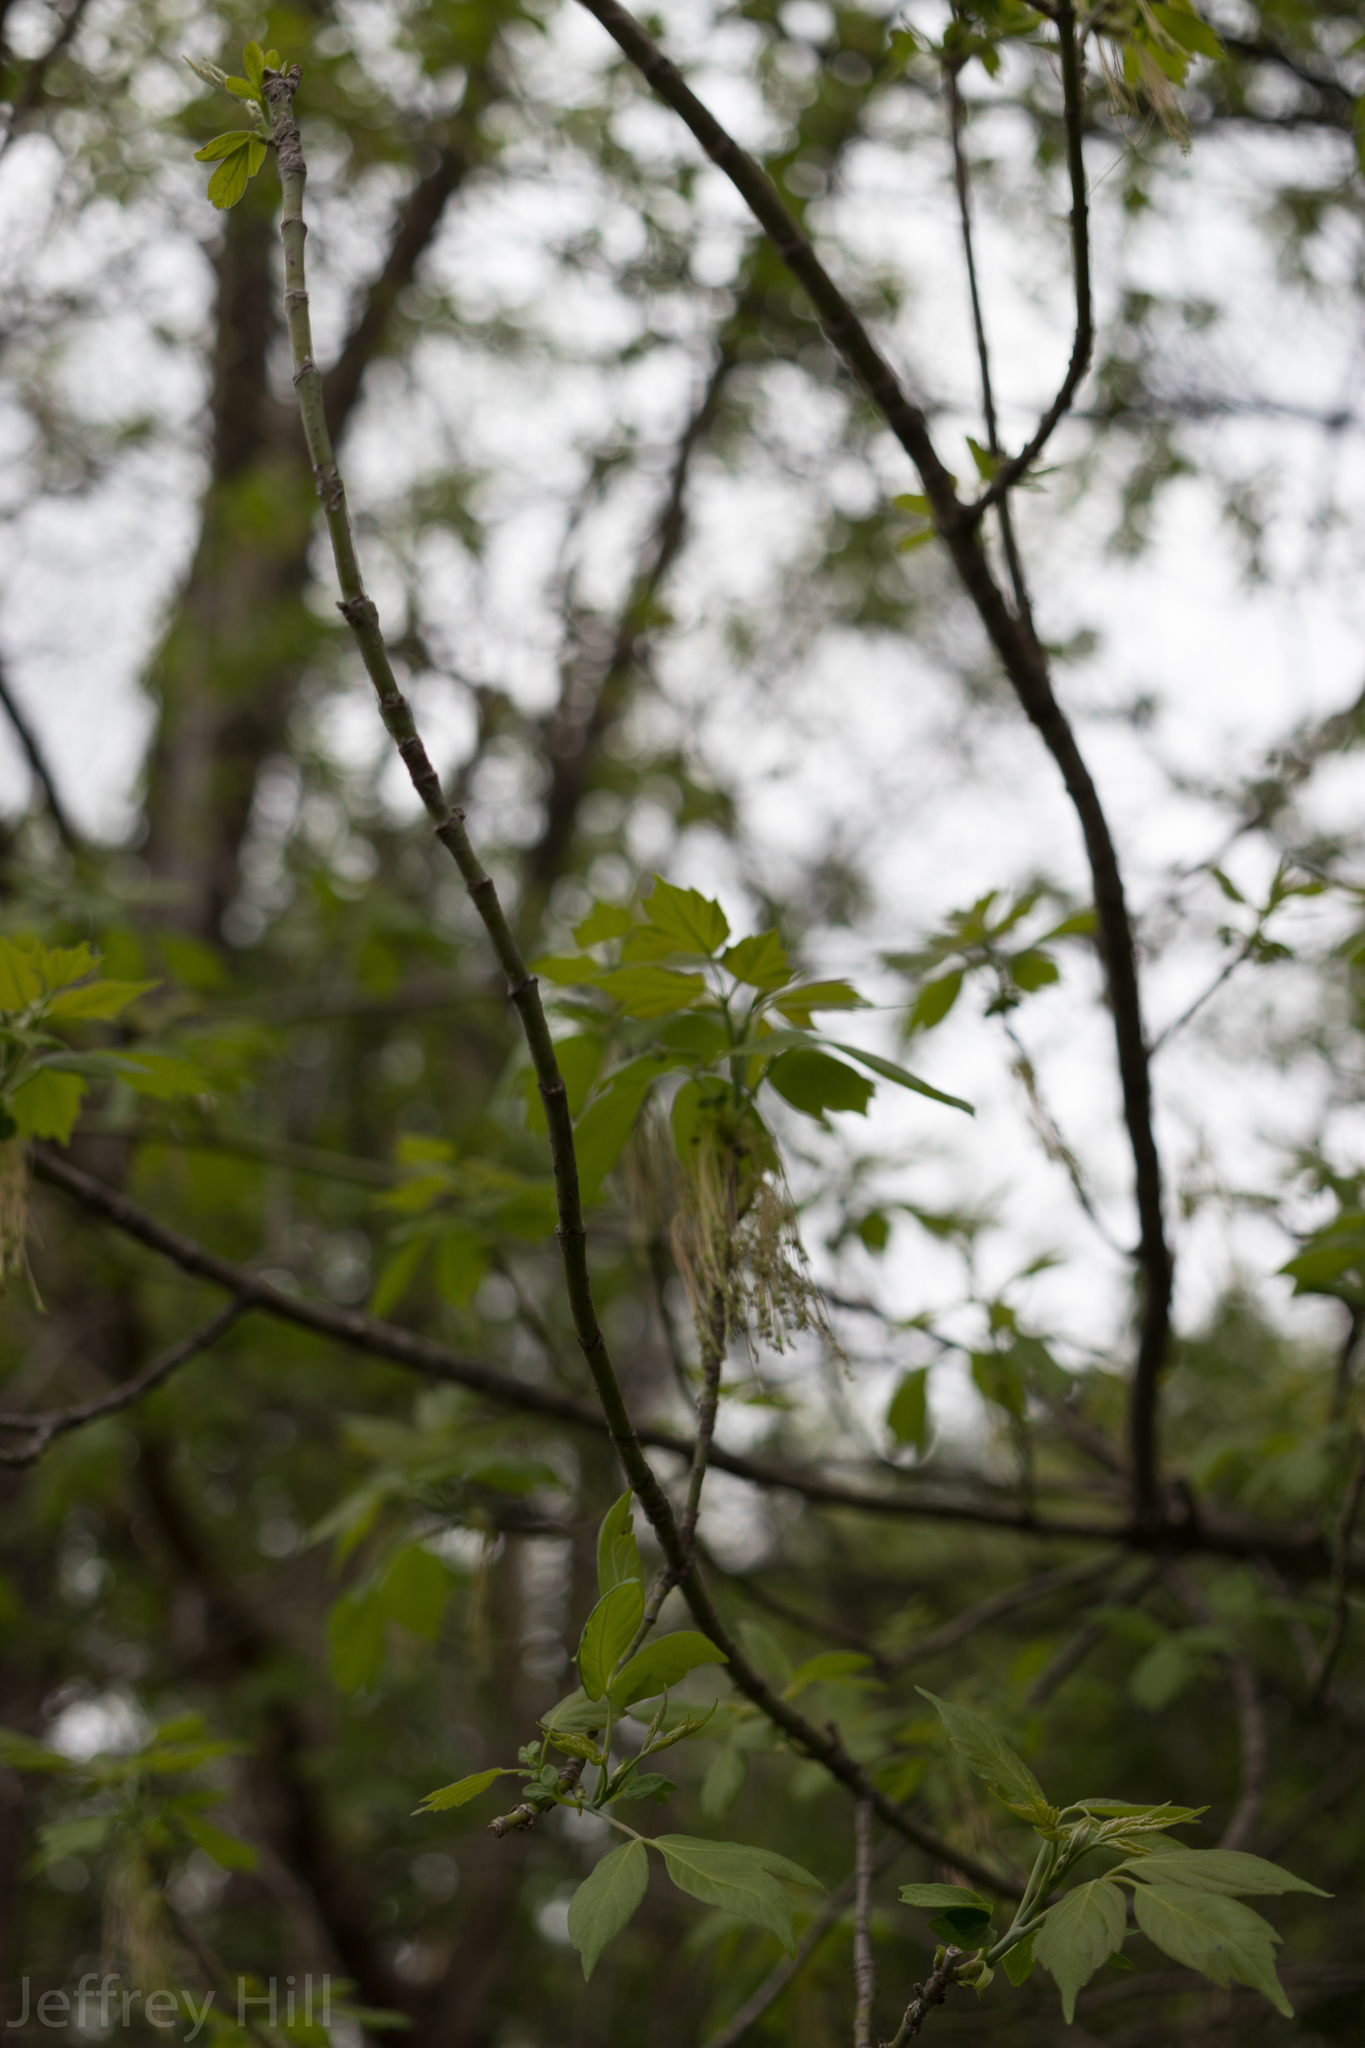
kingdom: Plantae
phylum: Tracheophyta
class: Magnoliopsida
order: Sapindales
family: Sapindaceae
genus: Acer
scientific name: Acer negundo
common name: Ashleaf maple
